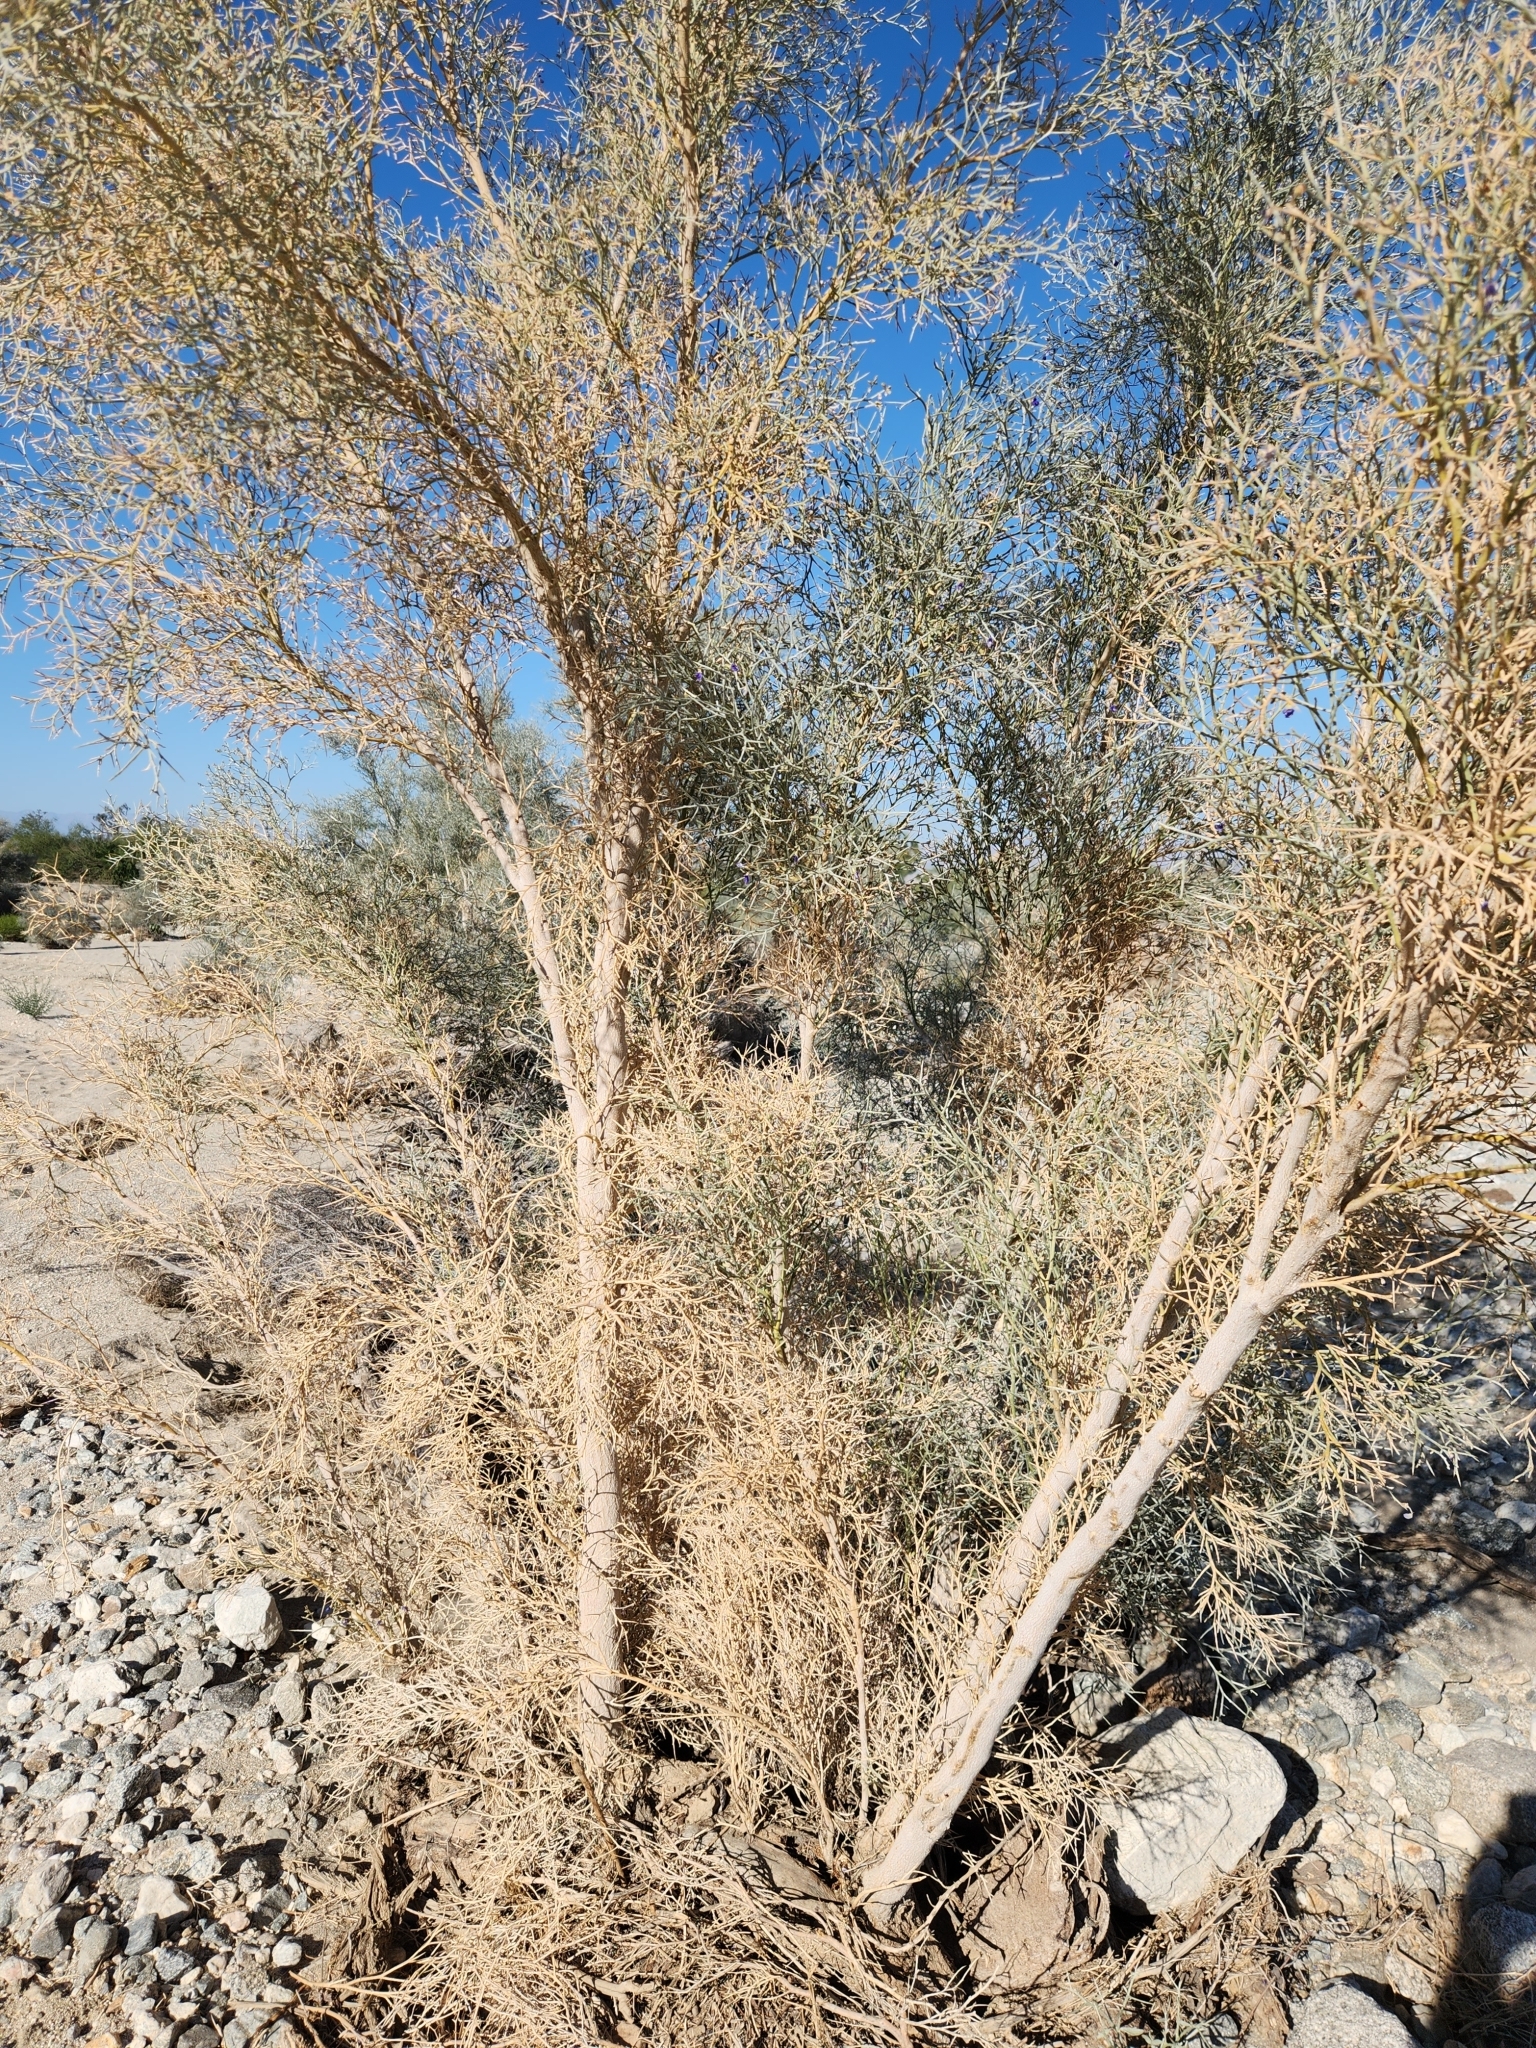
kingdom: Plantae
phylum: Tracheophyta
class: Magnoliopsida
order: Fabales
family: Fabaceae
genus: Psorothamnus
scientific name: Psorothamnus spinosus
